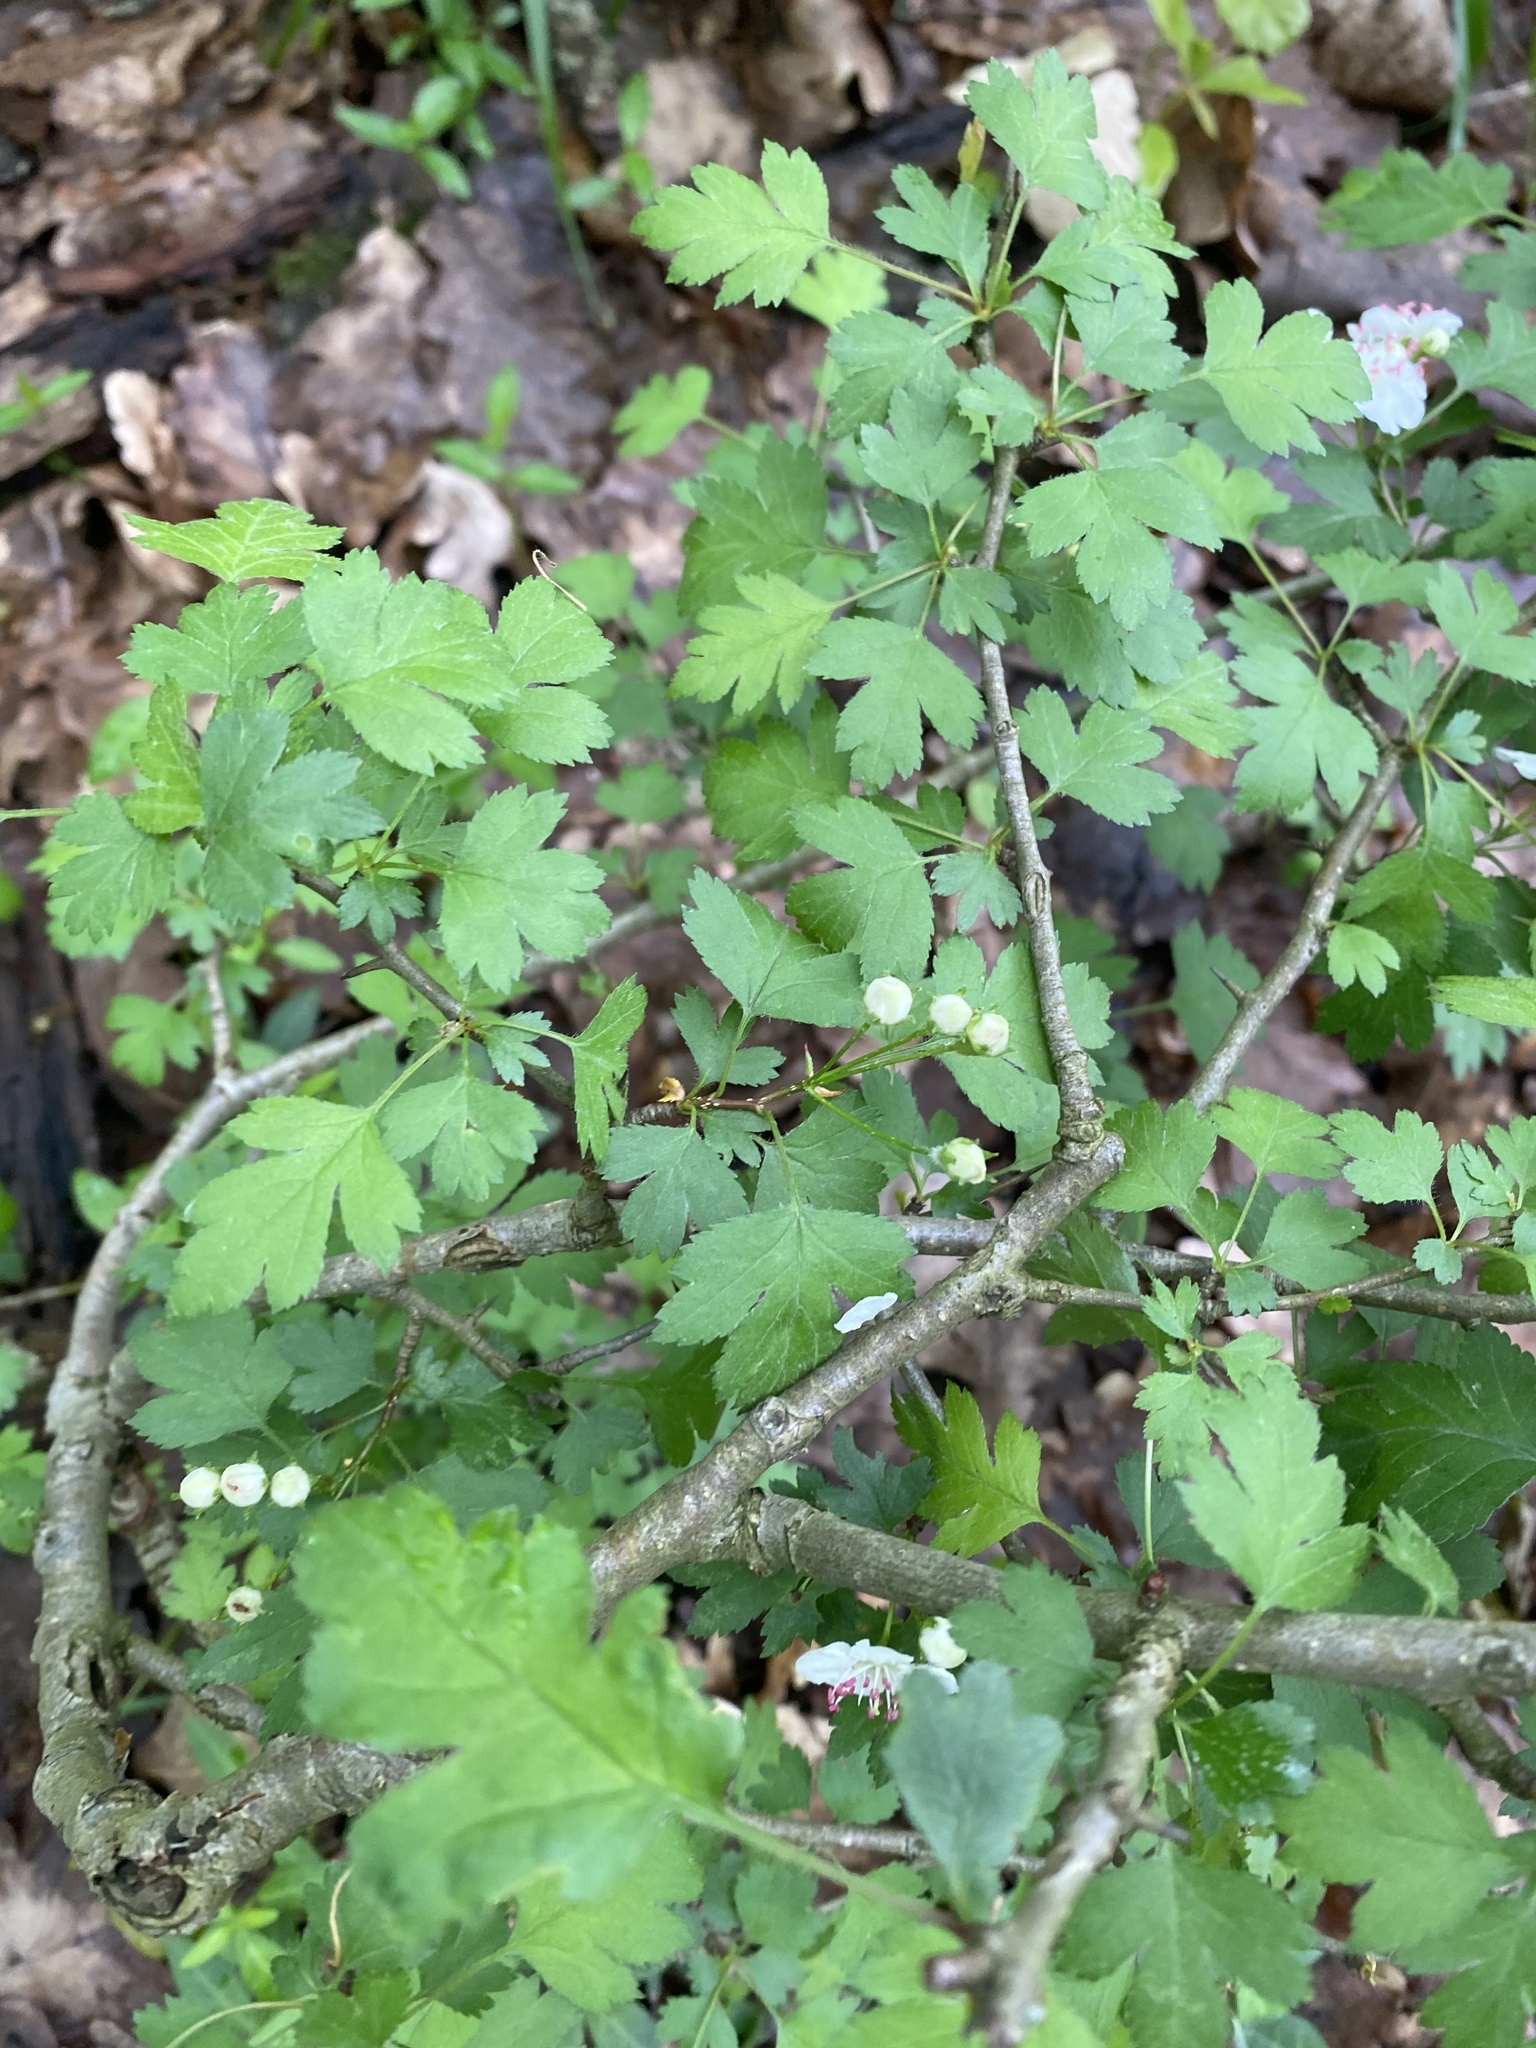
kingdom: Plantae
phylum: Tracheophyta
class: Magnoliopsida
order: Rosales
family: Rosaceae
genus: Crataegus
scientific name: Crataegus monogyna
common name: Hawthorn
